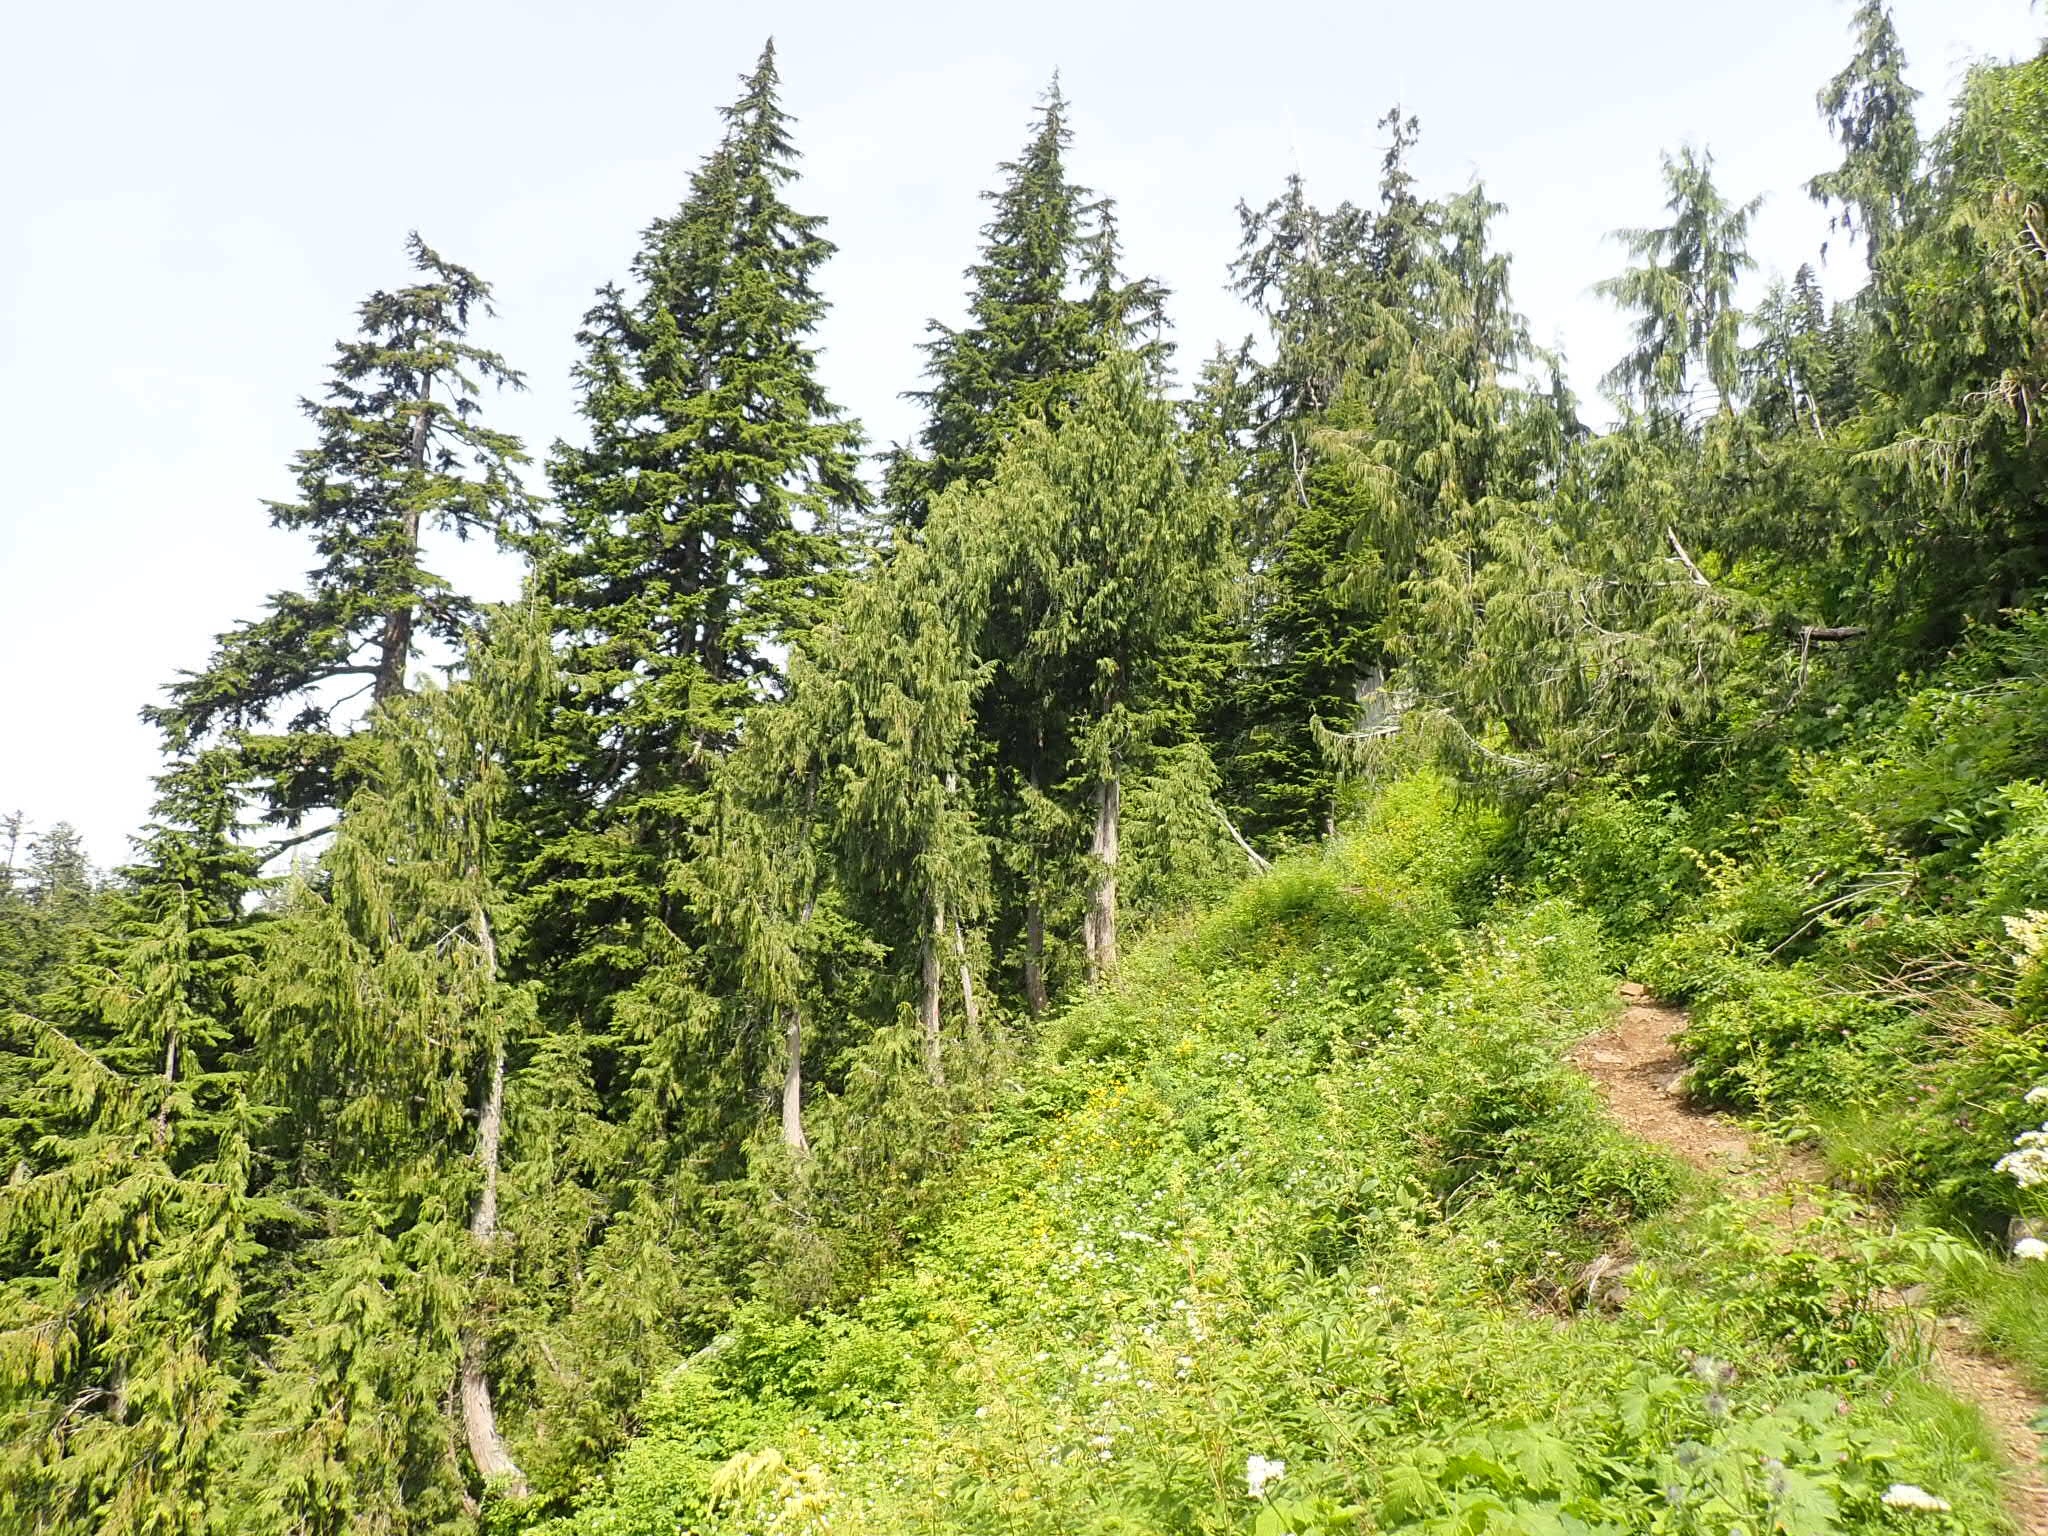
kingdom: Plantae
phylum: Tracheophyta
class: Pinopsida
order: Pinales
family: Cupressaceae
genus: Xanthocyparis
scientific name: Xanthocyparis nootkatensis
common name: Nootka cypress
